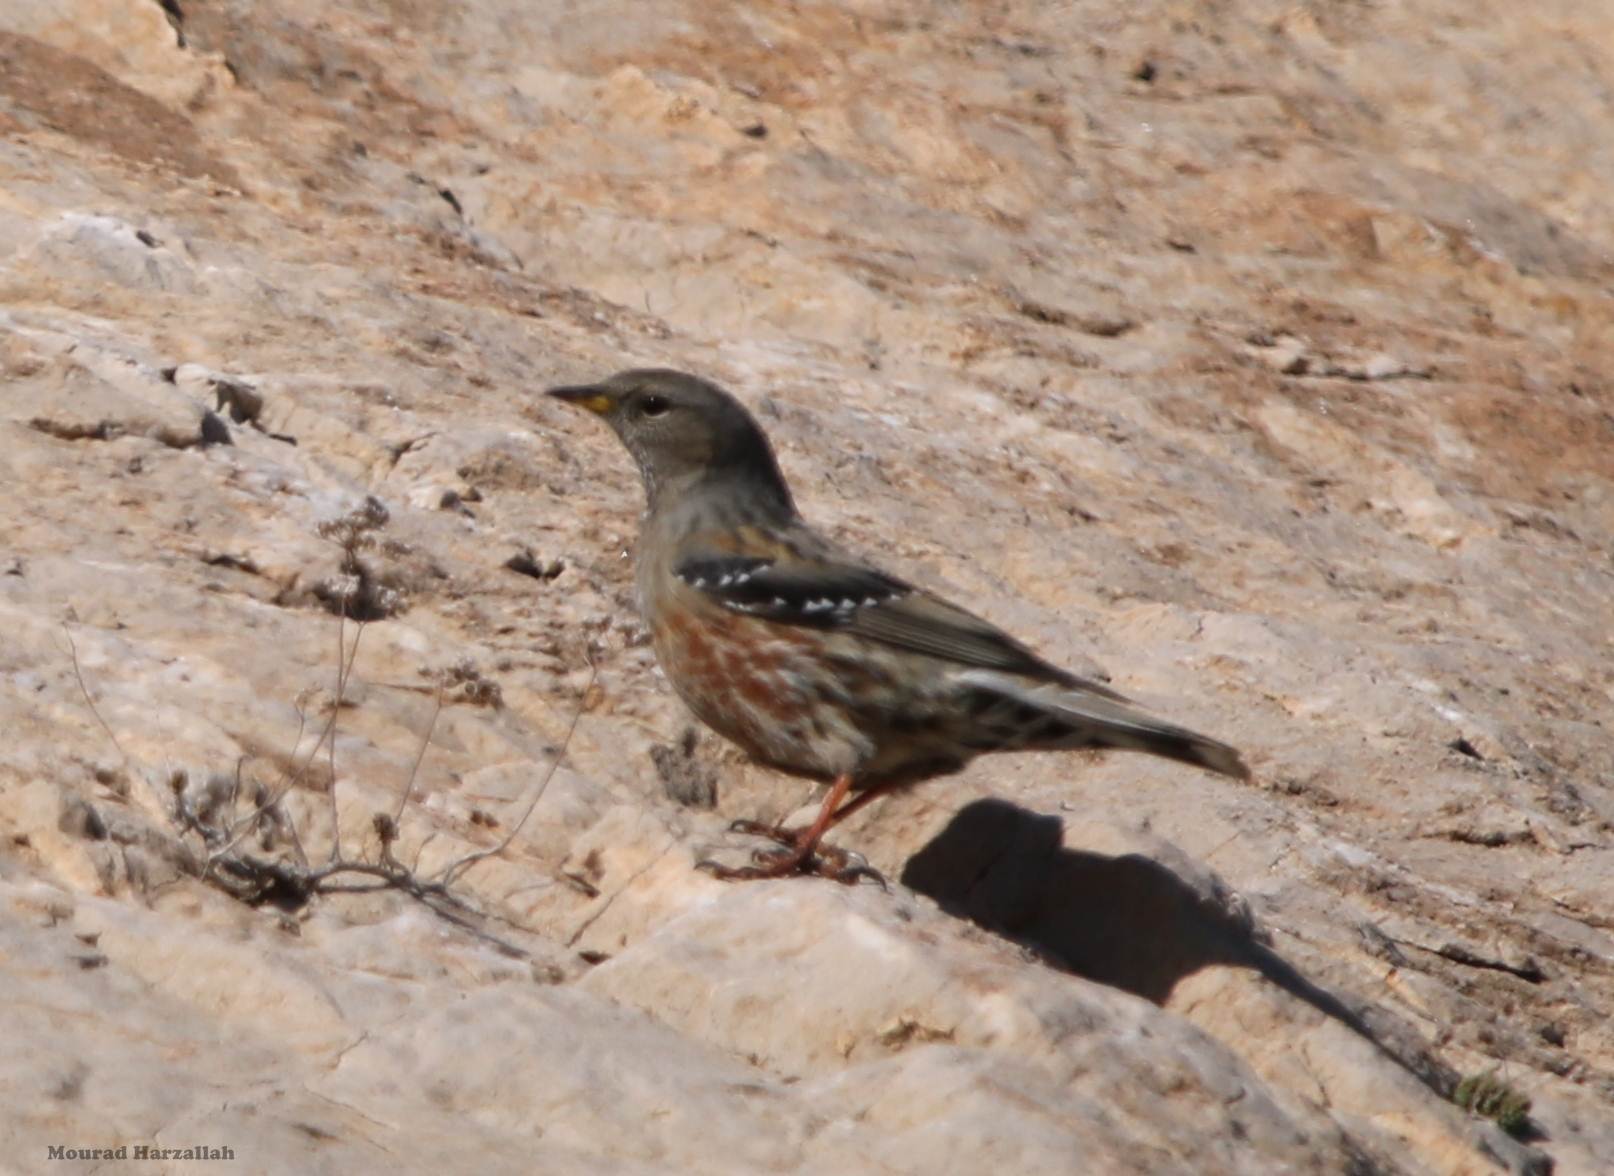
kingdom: Animalia
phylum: Chordata
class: Aves
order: Passeriformes
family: Prunellidae
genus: Prunella
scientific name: Prunella collaris
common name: Alpine accentor
